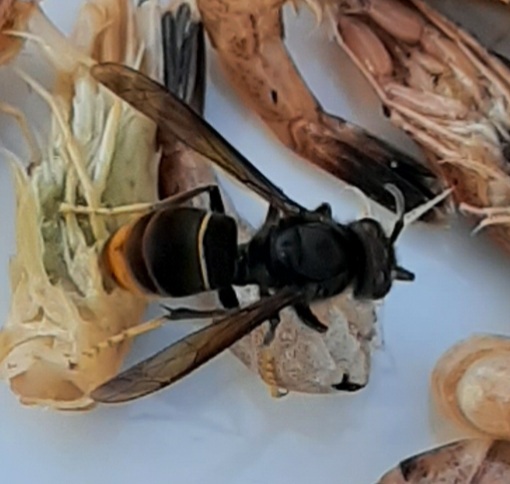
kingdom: Animalia
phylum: Arthropoda
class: Insecta
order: Hymenoptera
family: Vespidae
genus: Vespa
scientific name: Vespa velutina
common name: Asian hornet
